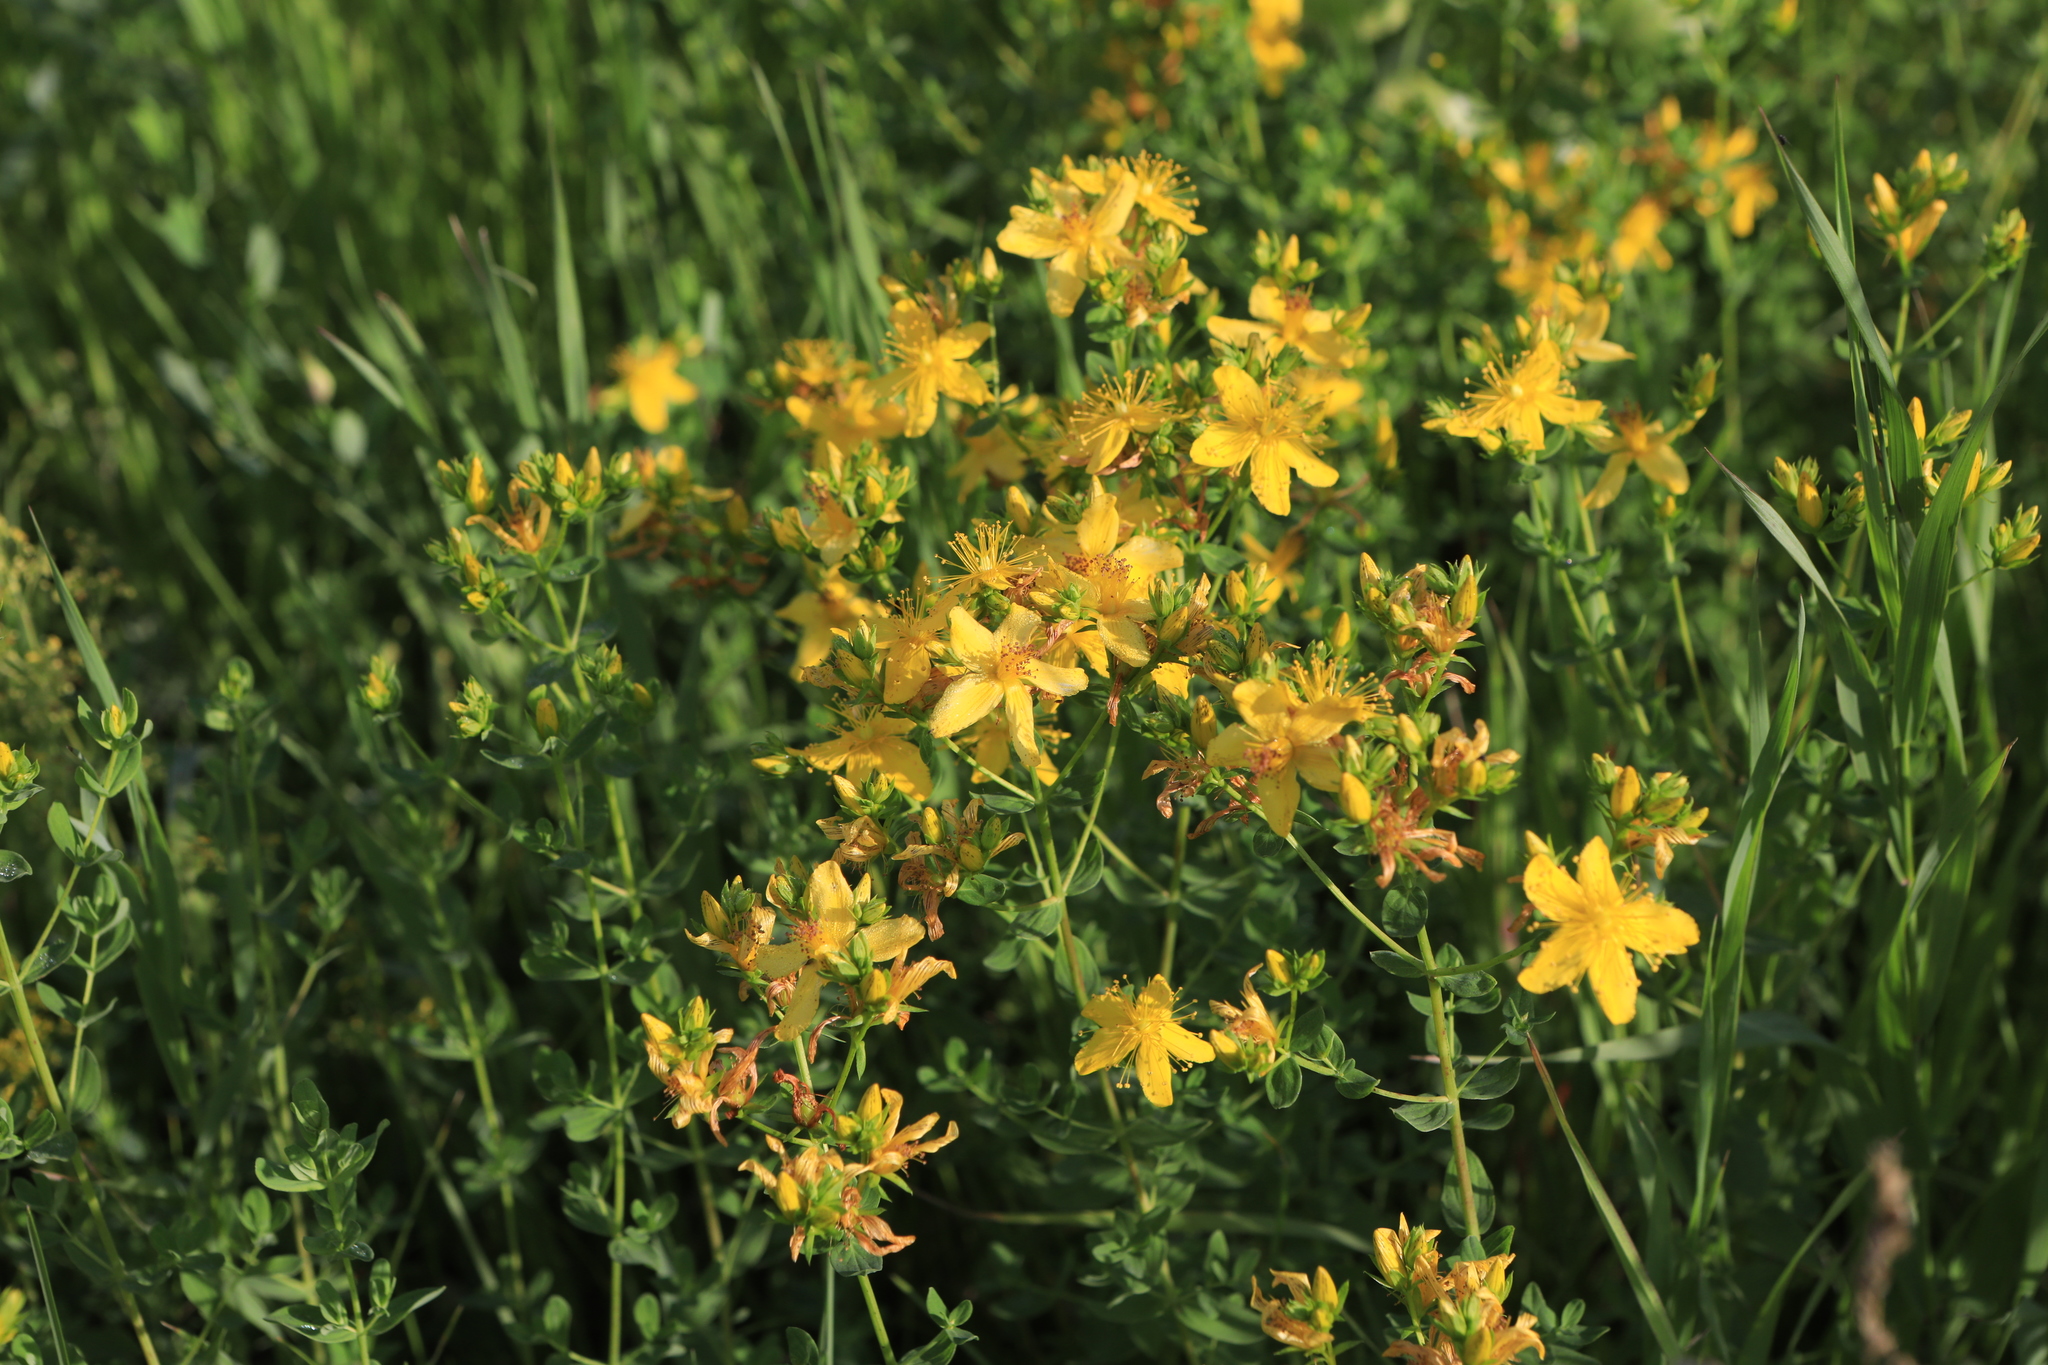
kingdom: Plantae
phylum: Tracheophyta
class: Magnoliopsida
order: Malpighiales
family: Hypericaceae
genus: Hypericum
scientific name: Hypericum perforatum
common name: Common st. johnswort
